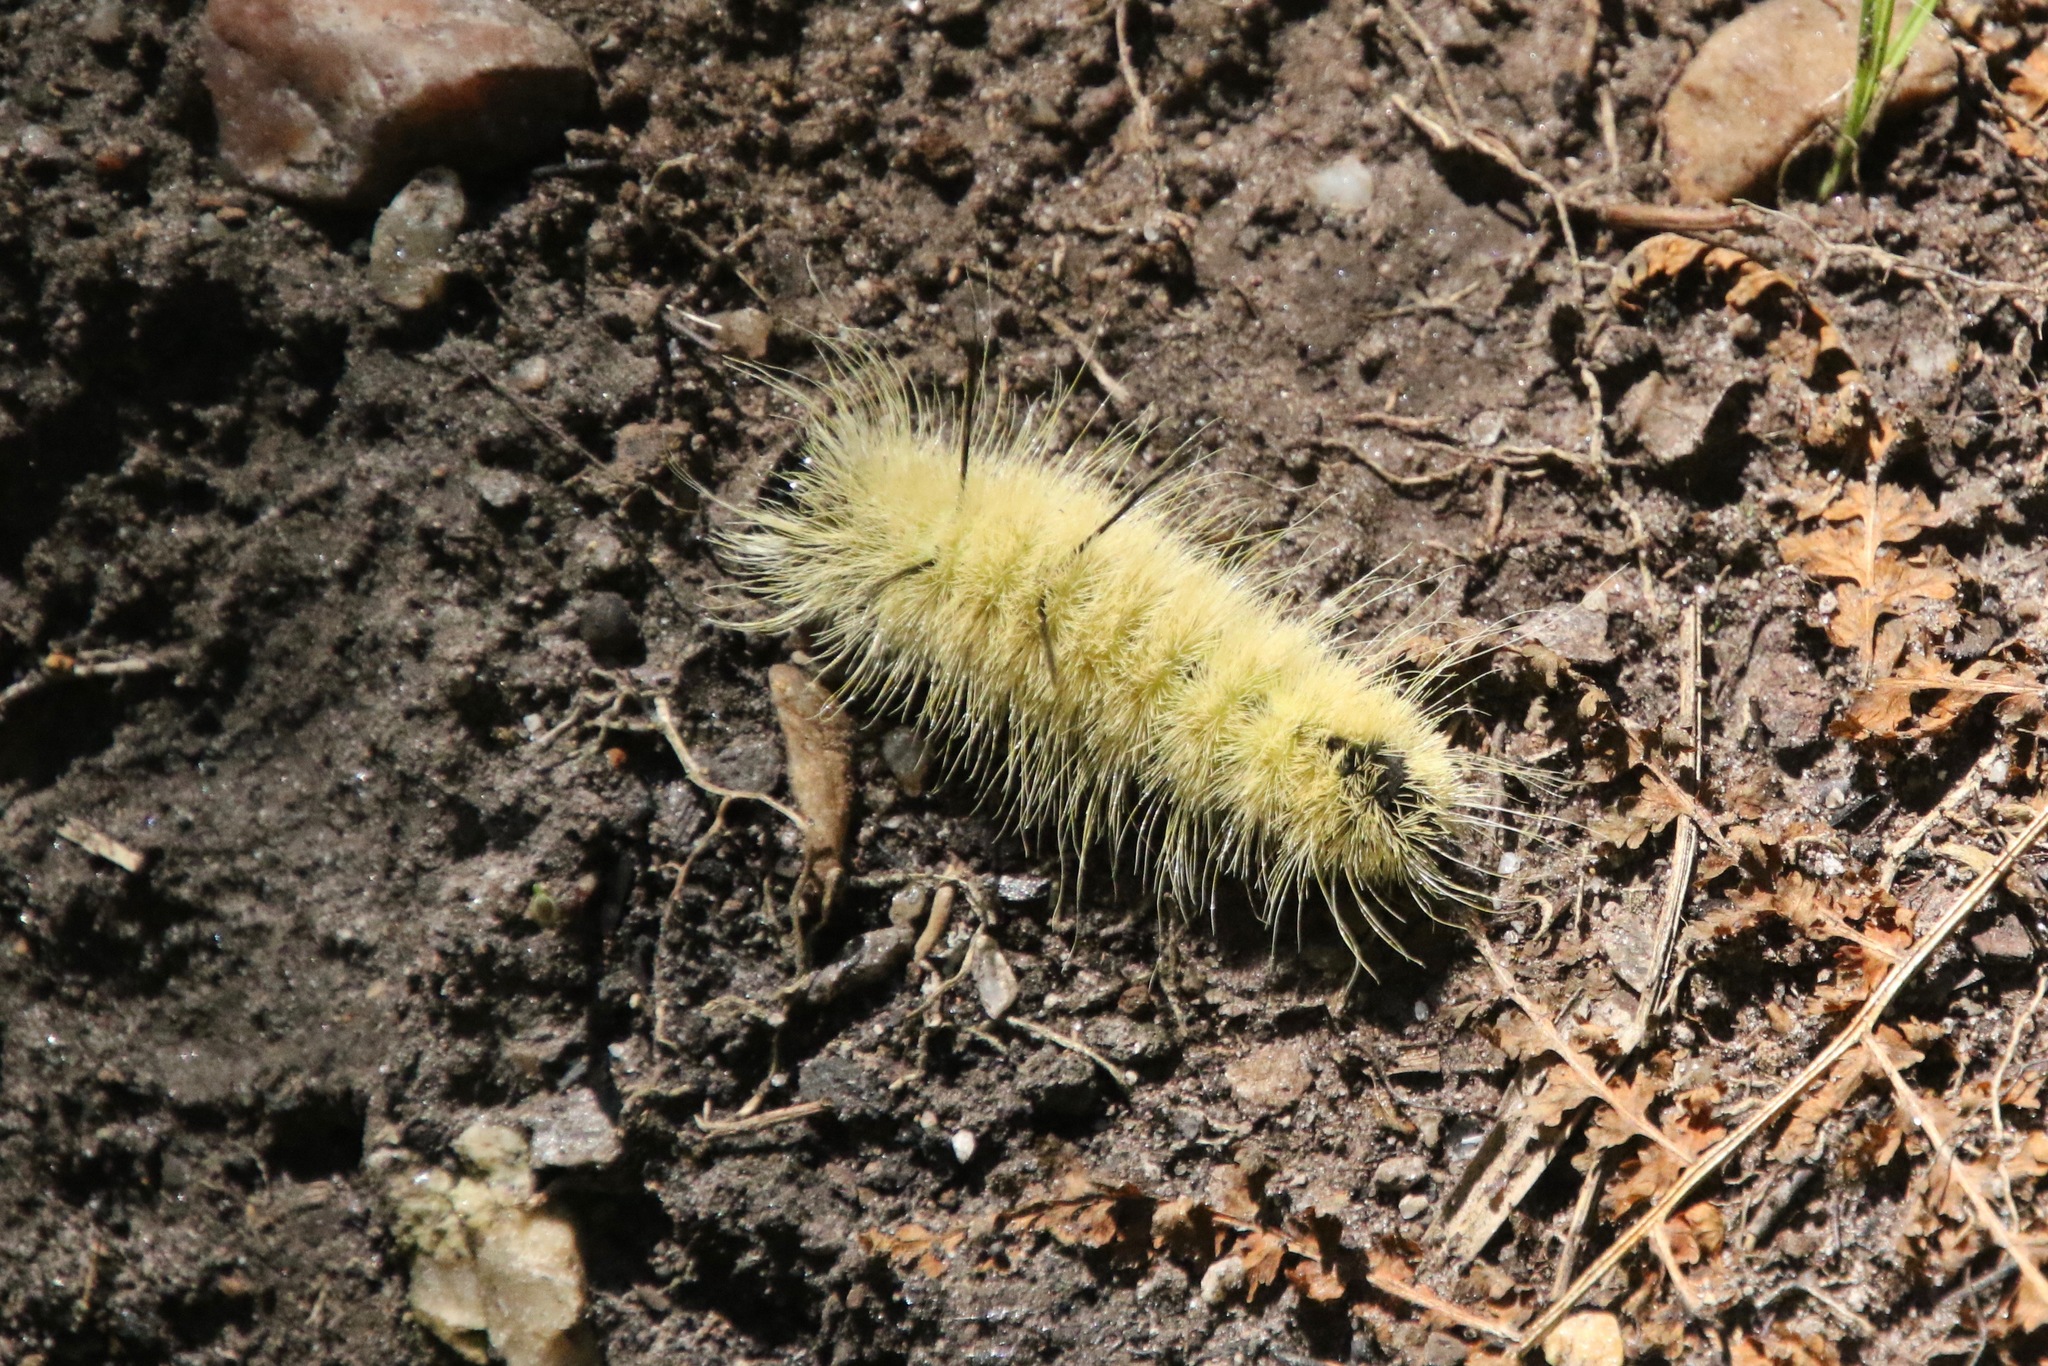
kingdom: Animalia
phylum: Arthropoda
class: Insecta
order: Lepidoptera
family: Noctuidae
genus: Acronicta
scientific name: Acronicta americana
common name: American dagger
